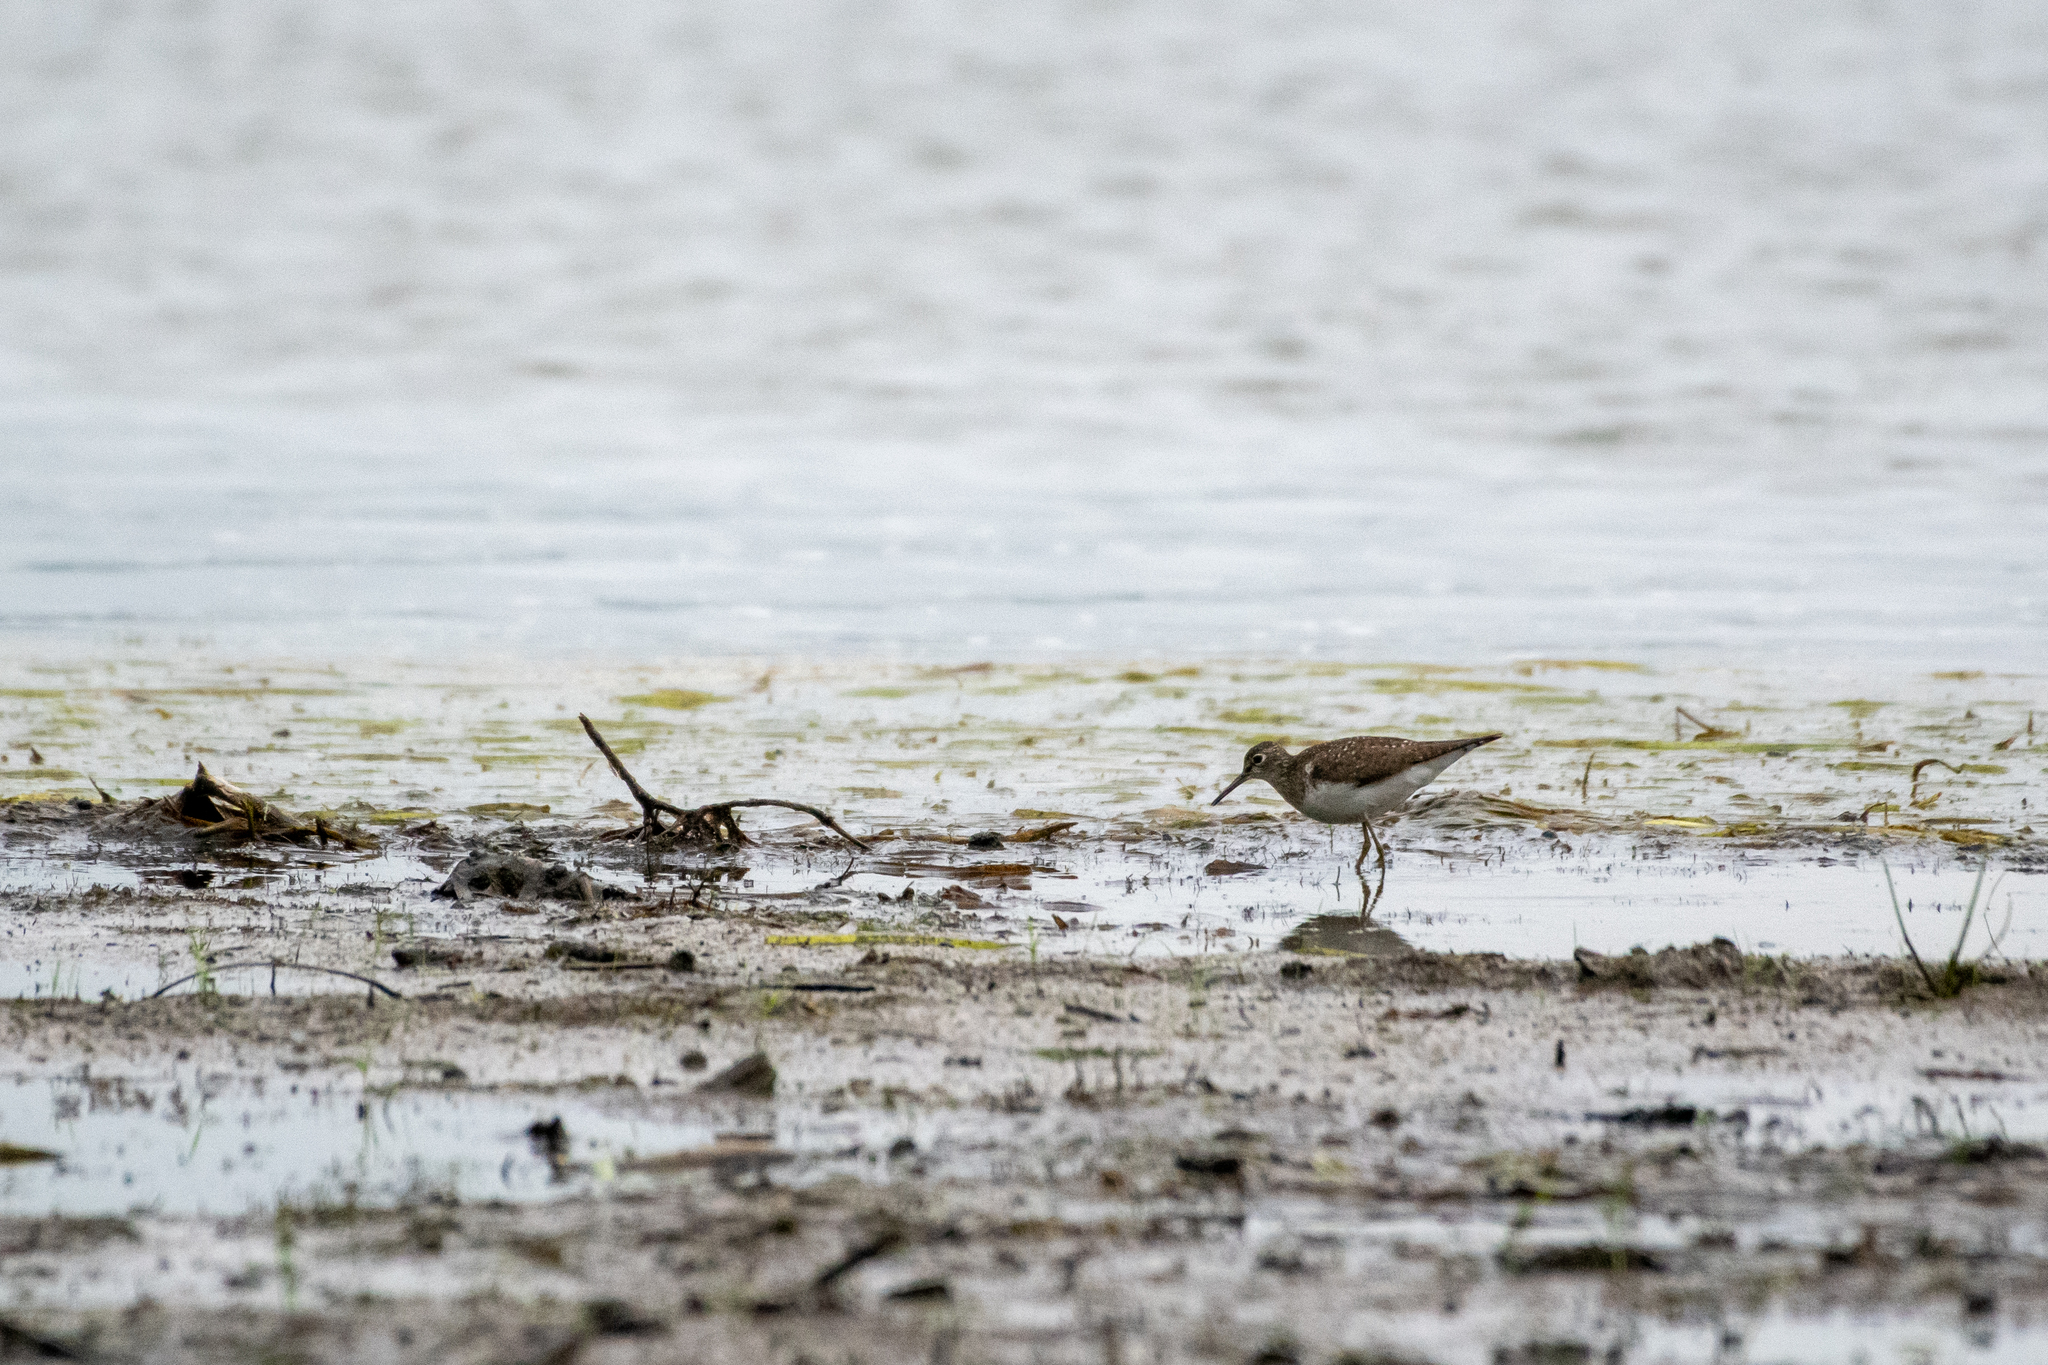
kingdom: Animalia
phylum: Chordata
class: Aves
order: Charadriiformes
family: Scolopacidae
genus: Tringa
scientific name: Tringa solitaria
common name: Solitary sandpiper
